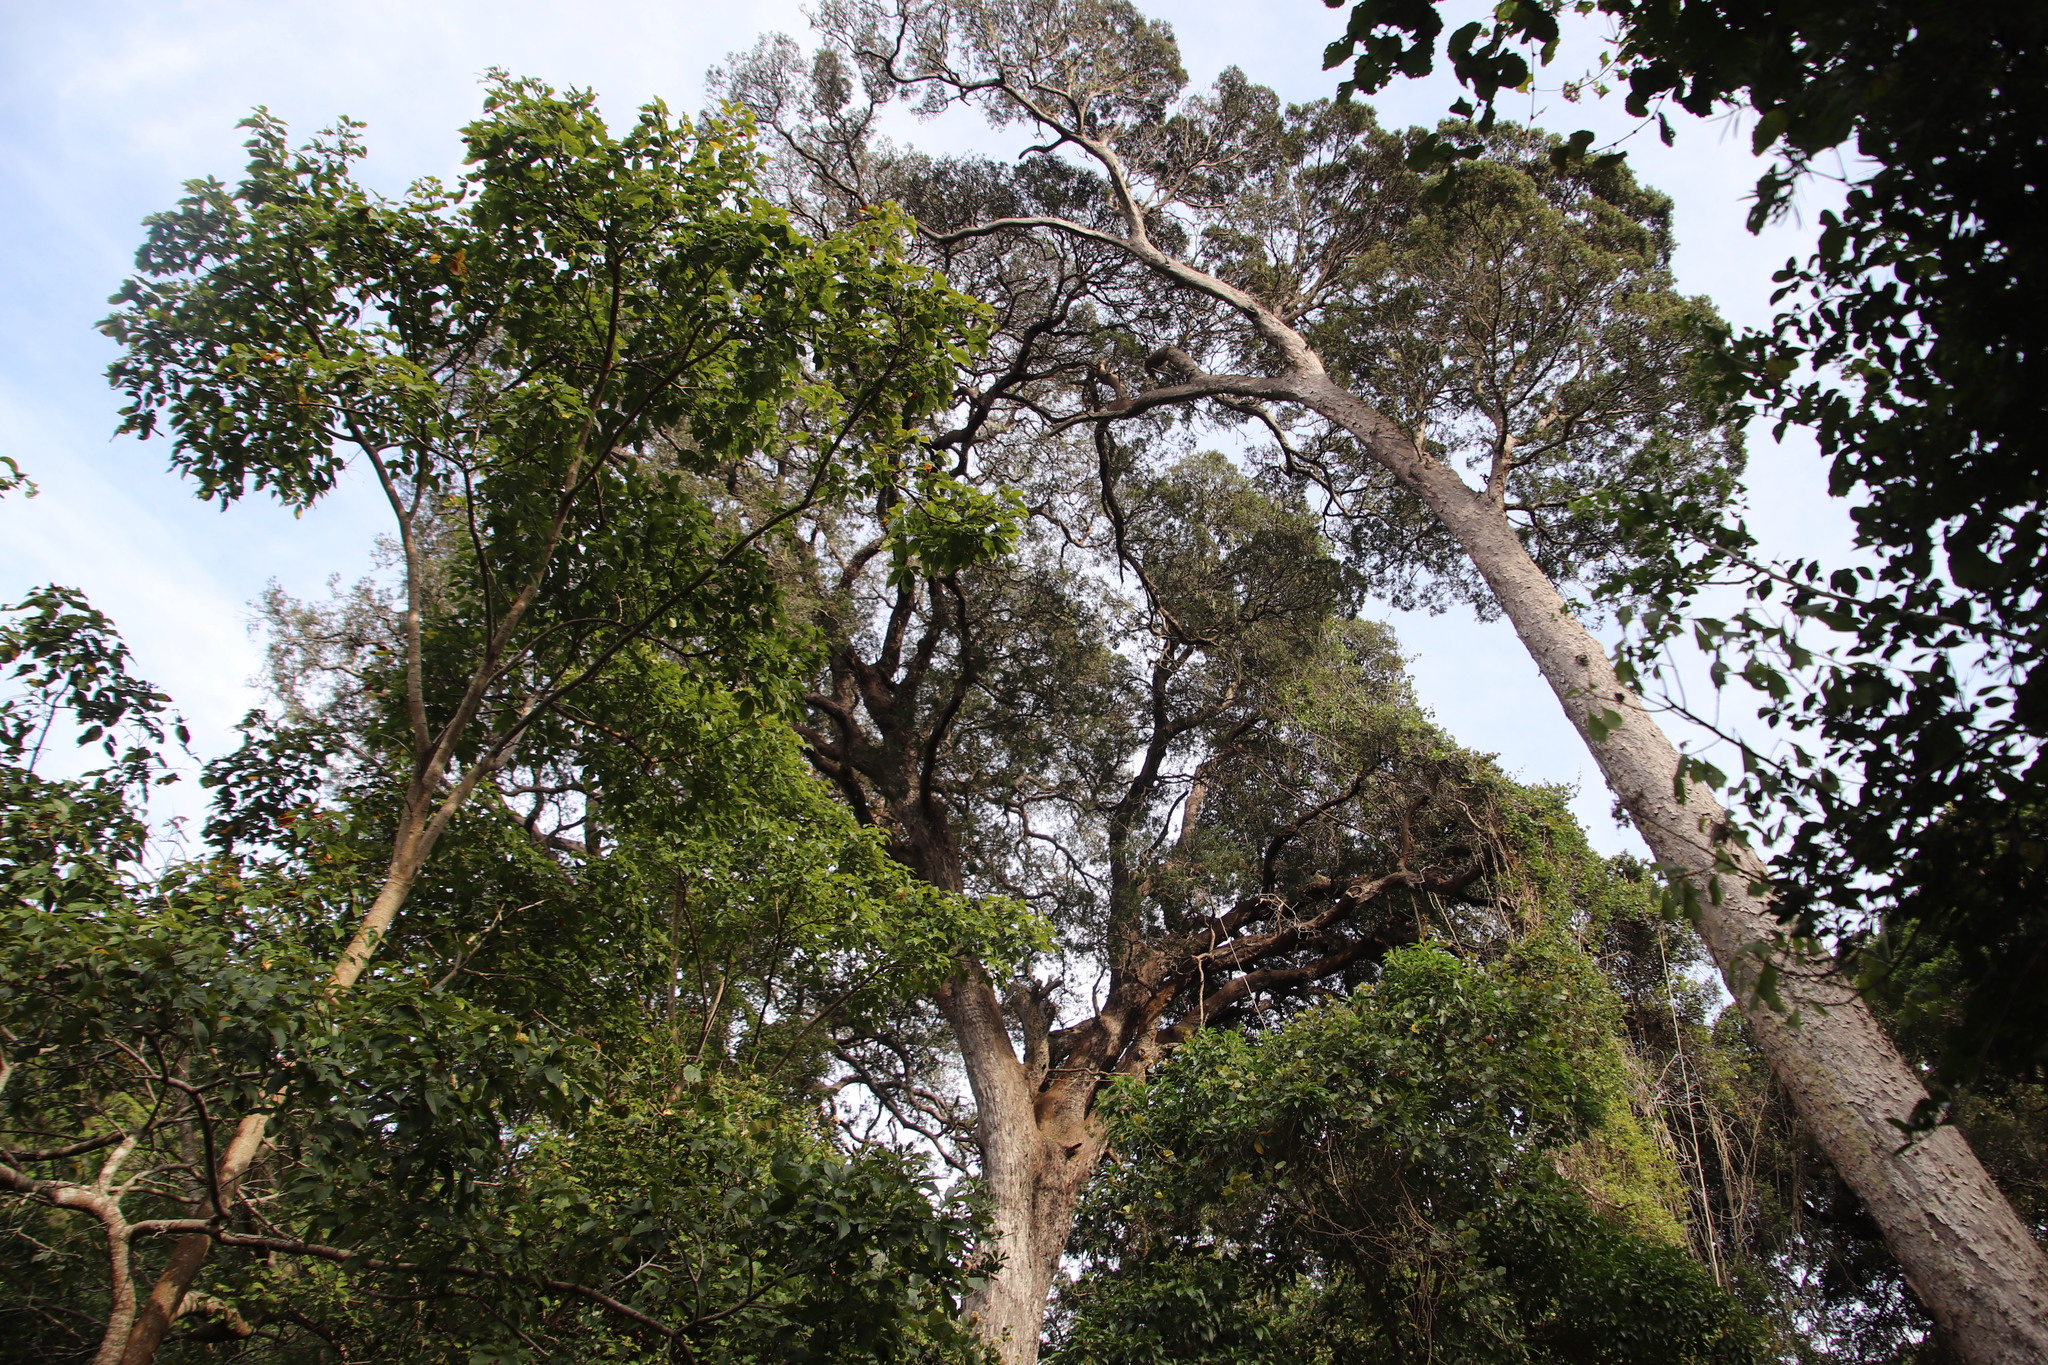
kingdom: Plantae
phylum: Tracheophyta
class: Pinopsida
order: Pinales
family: Podocarpaceae
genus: Afrocarpus
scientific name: Afrocarpus falcatus
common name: Bastard yellowwood
